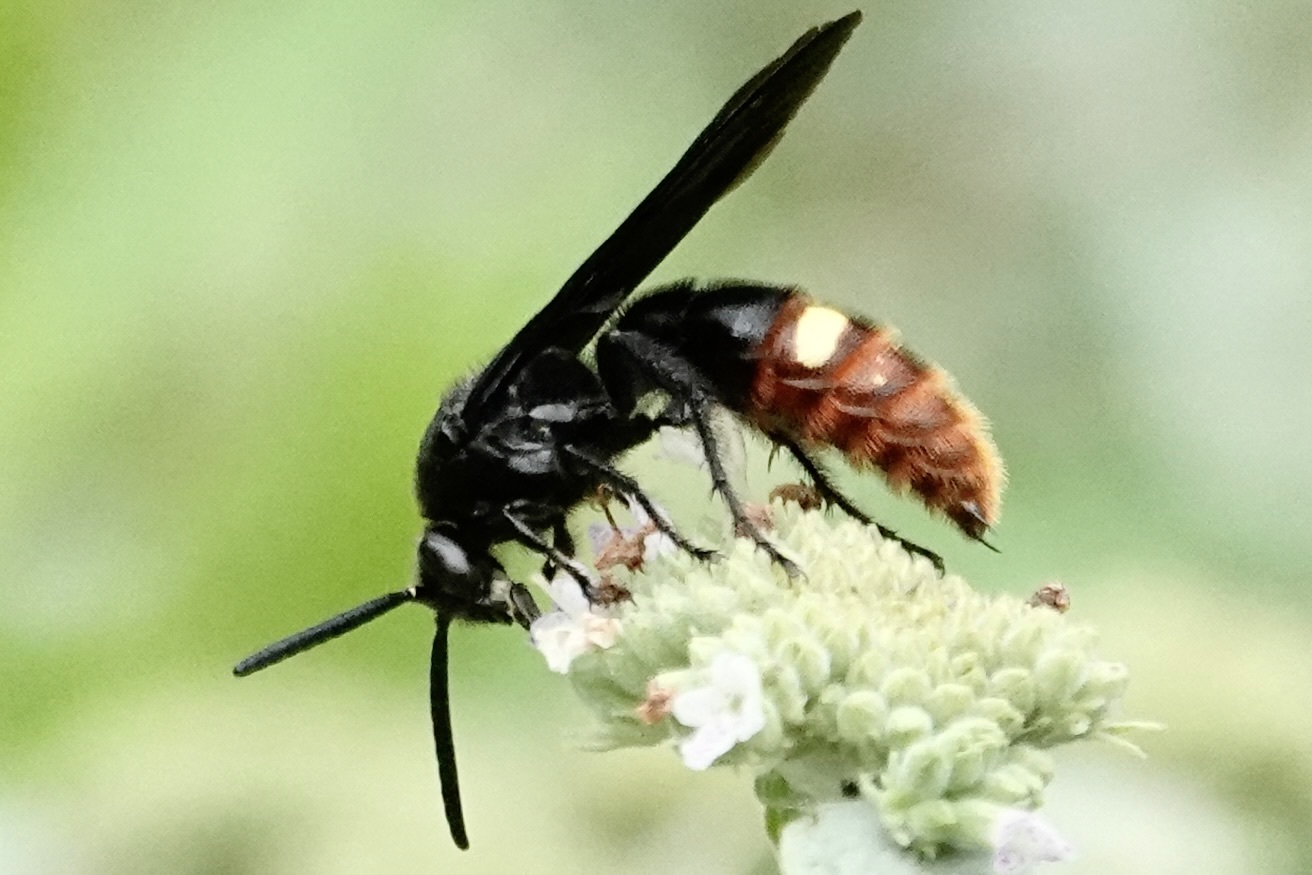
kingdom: Animalia
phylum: Arthropoda
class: Insecta
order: Hymenoptera
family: Scoliidae
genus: Scolia
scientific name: Scolia dubia
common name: Blue-winged scoliid wasp
